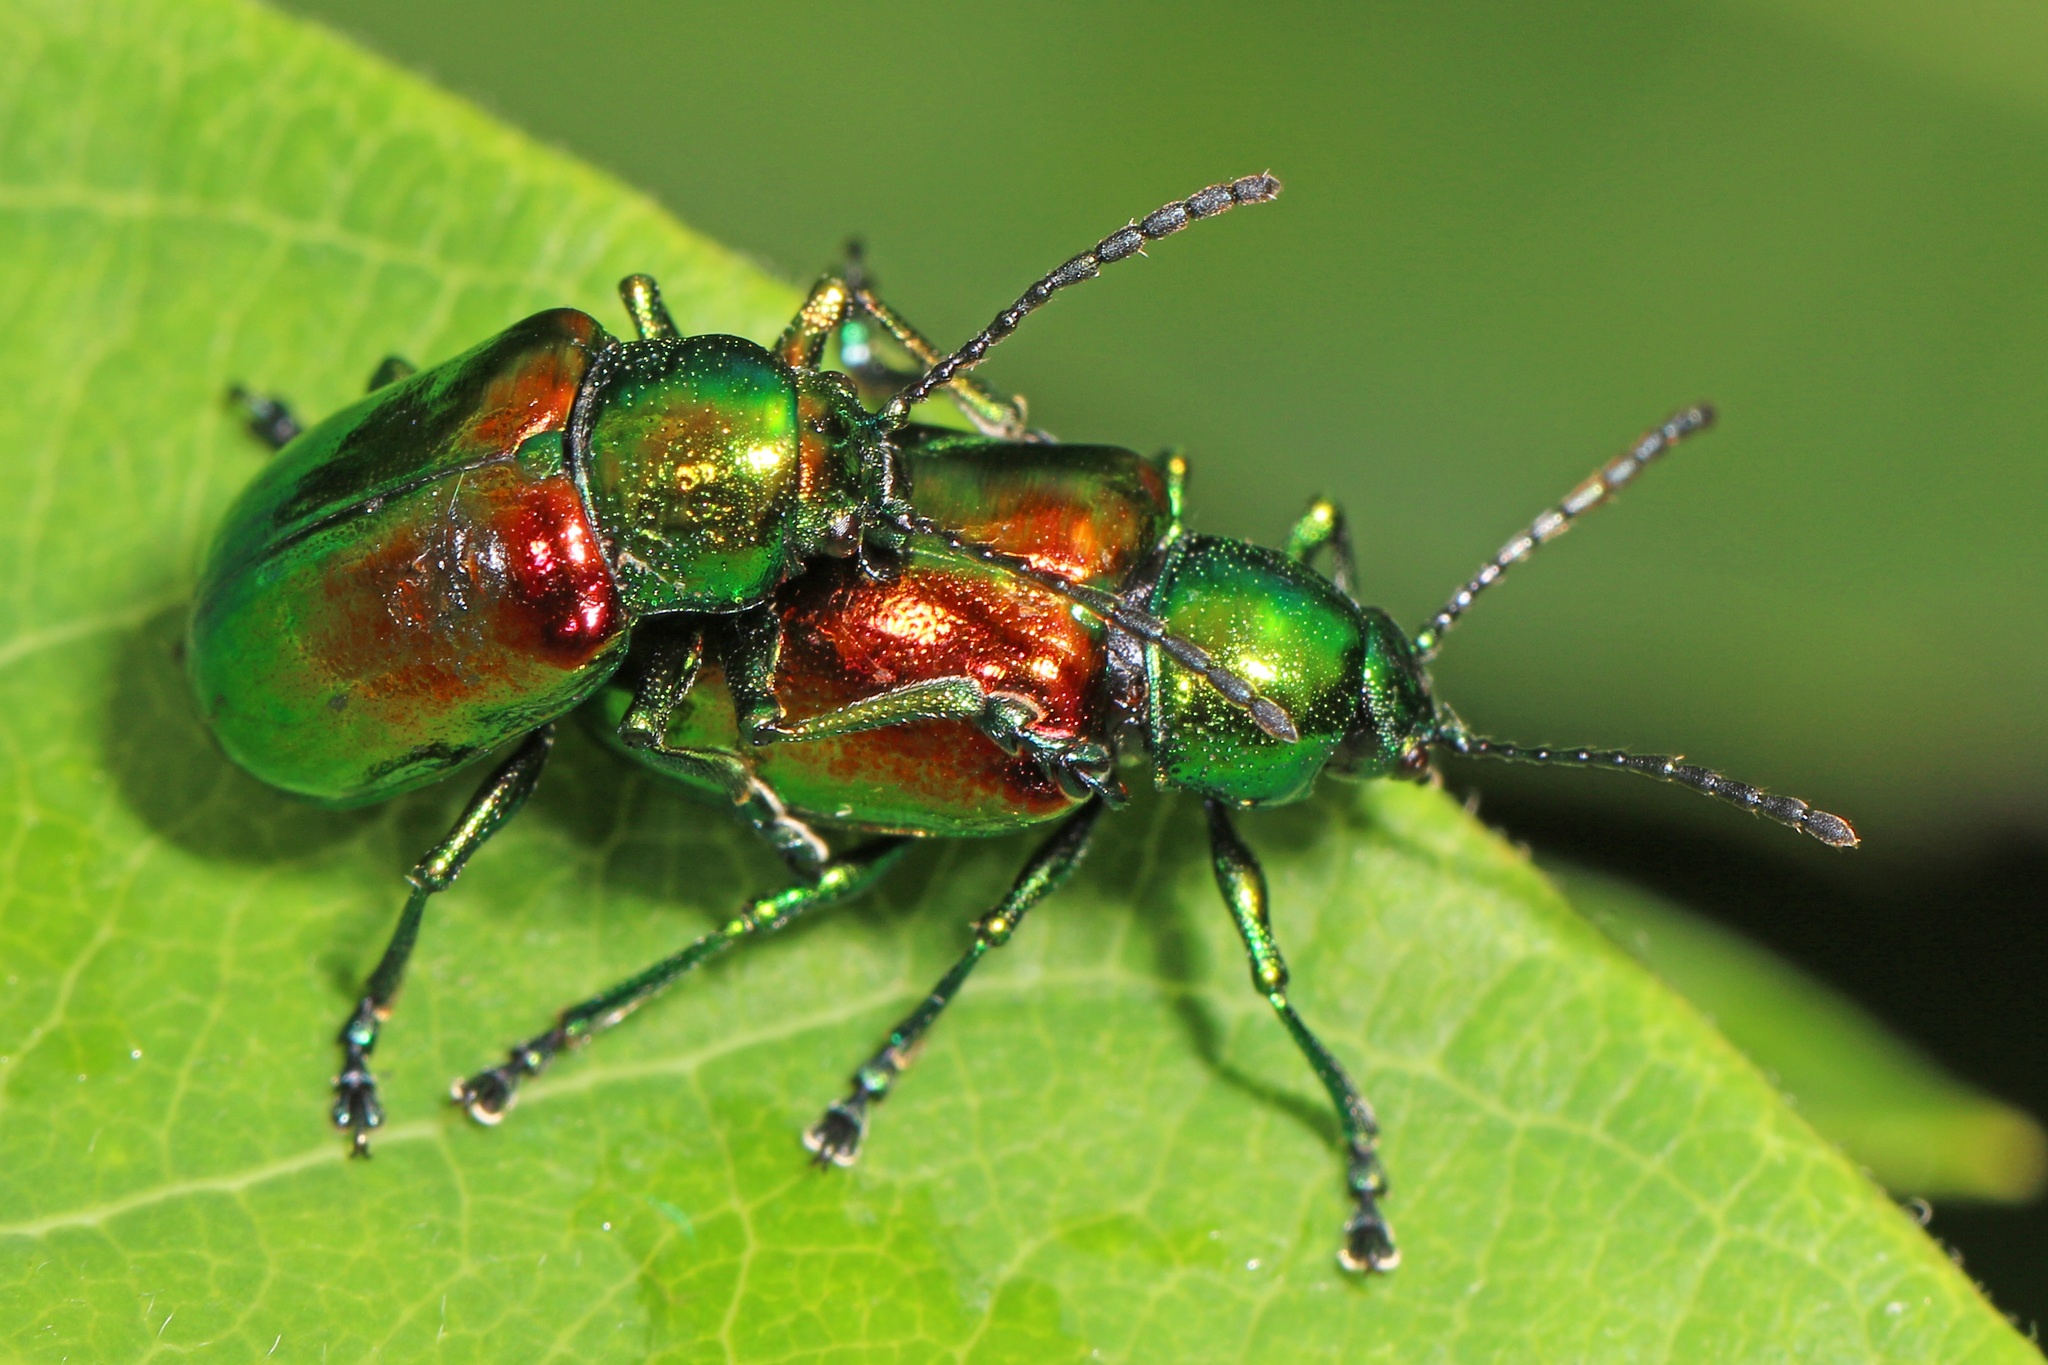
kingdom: Animalia
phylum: Arthropoda
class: Insecta
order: Coleoptera
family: Chrysomelidae
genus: Chrysochus
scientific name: Chrysochus auratus
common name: Dogbane leaf beetle
